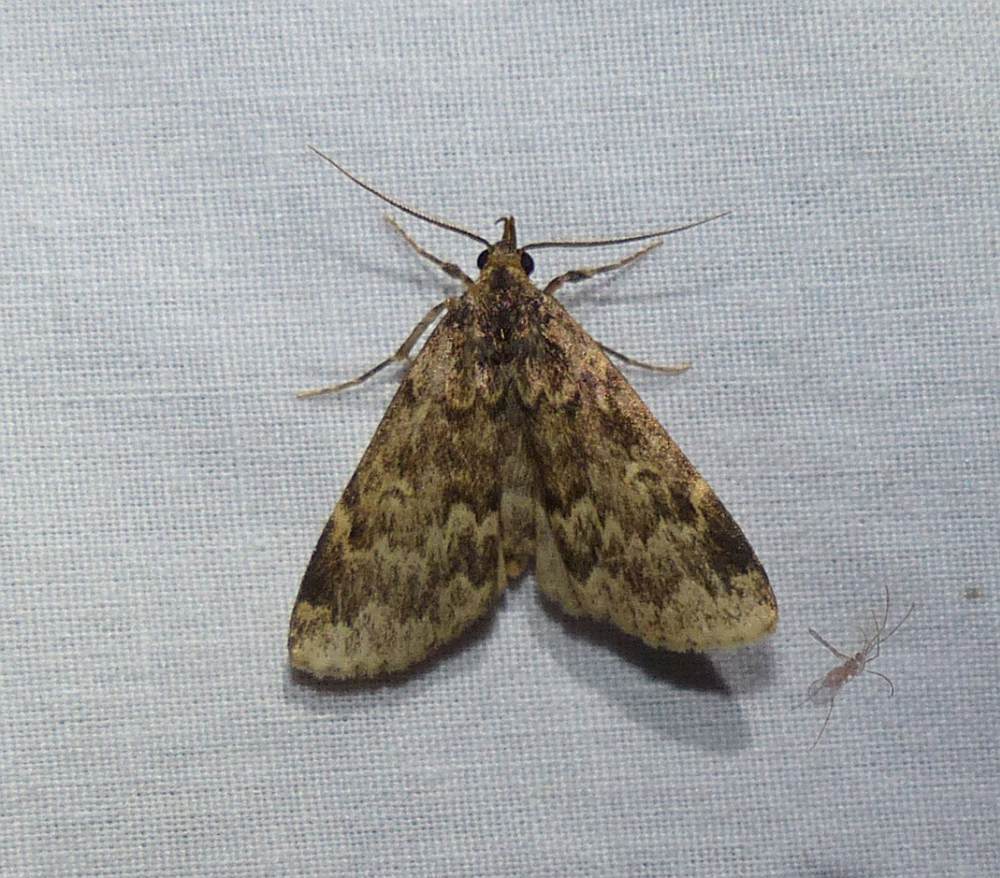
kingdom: Animalia
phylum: Arthropoda
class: Insecta
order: Lepidoptera
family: Erebidae
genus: Idia
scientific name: Idia lubricalis
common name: Twin-striped tabby
